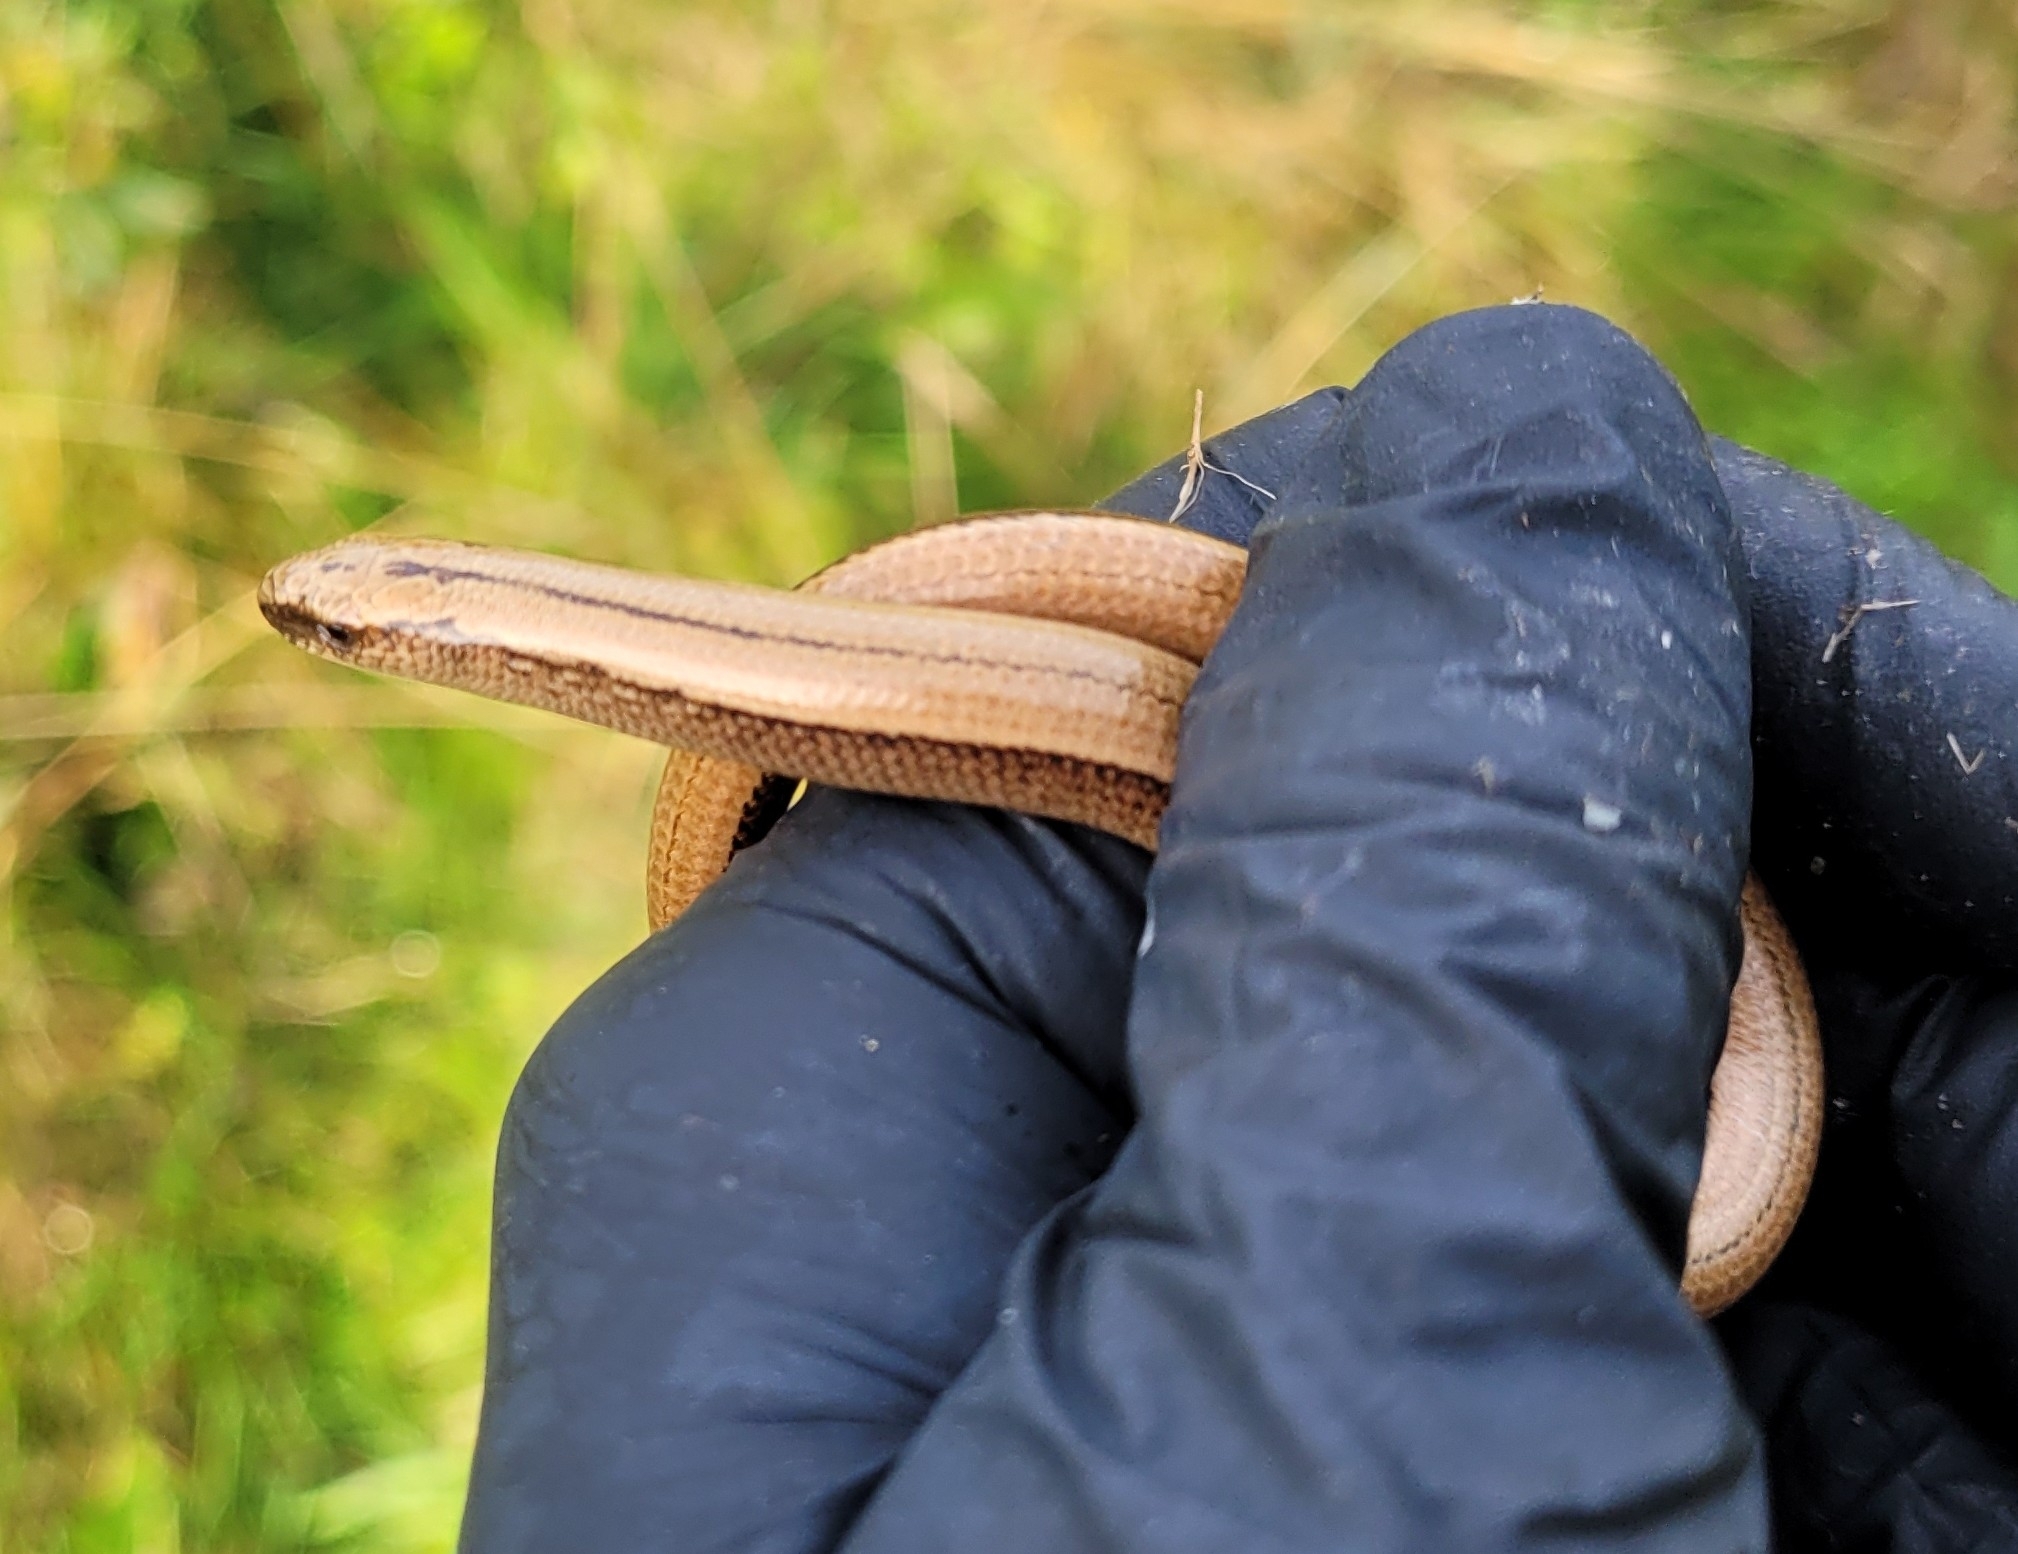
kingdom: Animalia
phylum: Chordata
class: Squamata
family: Anguidae
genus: Anguis
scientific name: Anguis fragilis
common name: Slow worm
